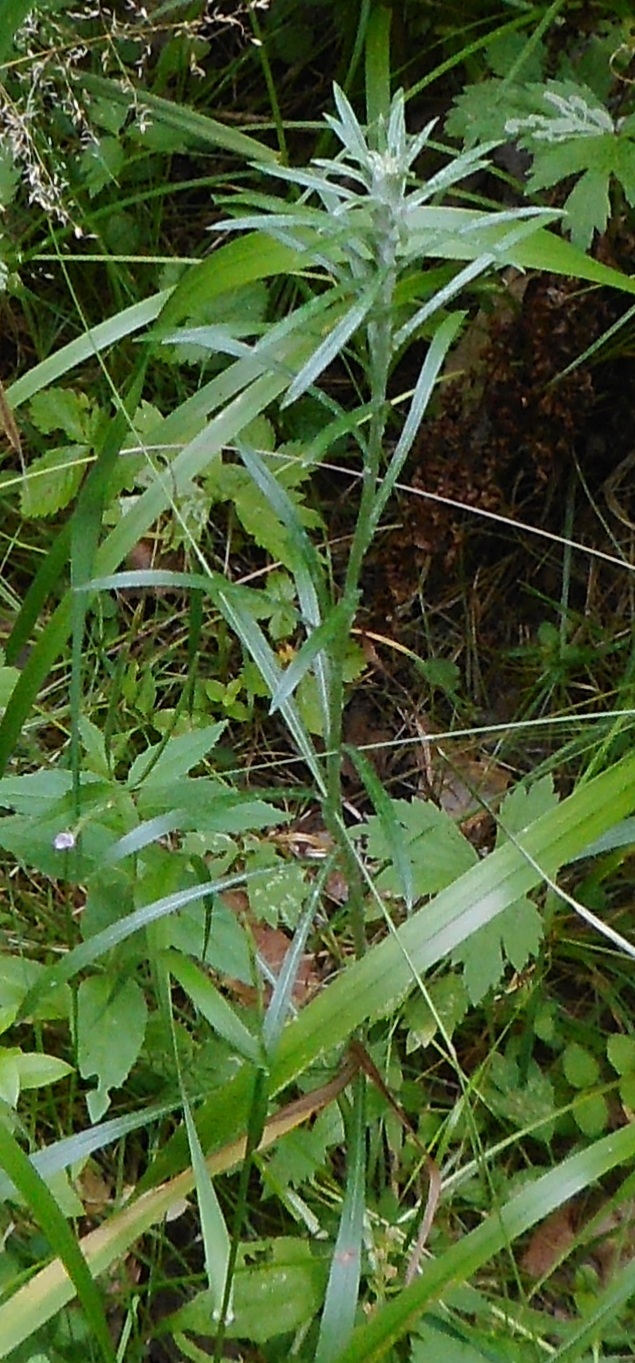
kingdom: Plantae
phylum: Tracheophyta
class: Magnoliopsida
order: Asterales
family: Asteraceae
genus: Omalotheca
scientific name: Omalotheca sylvatica
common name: Heath cudweed
